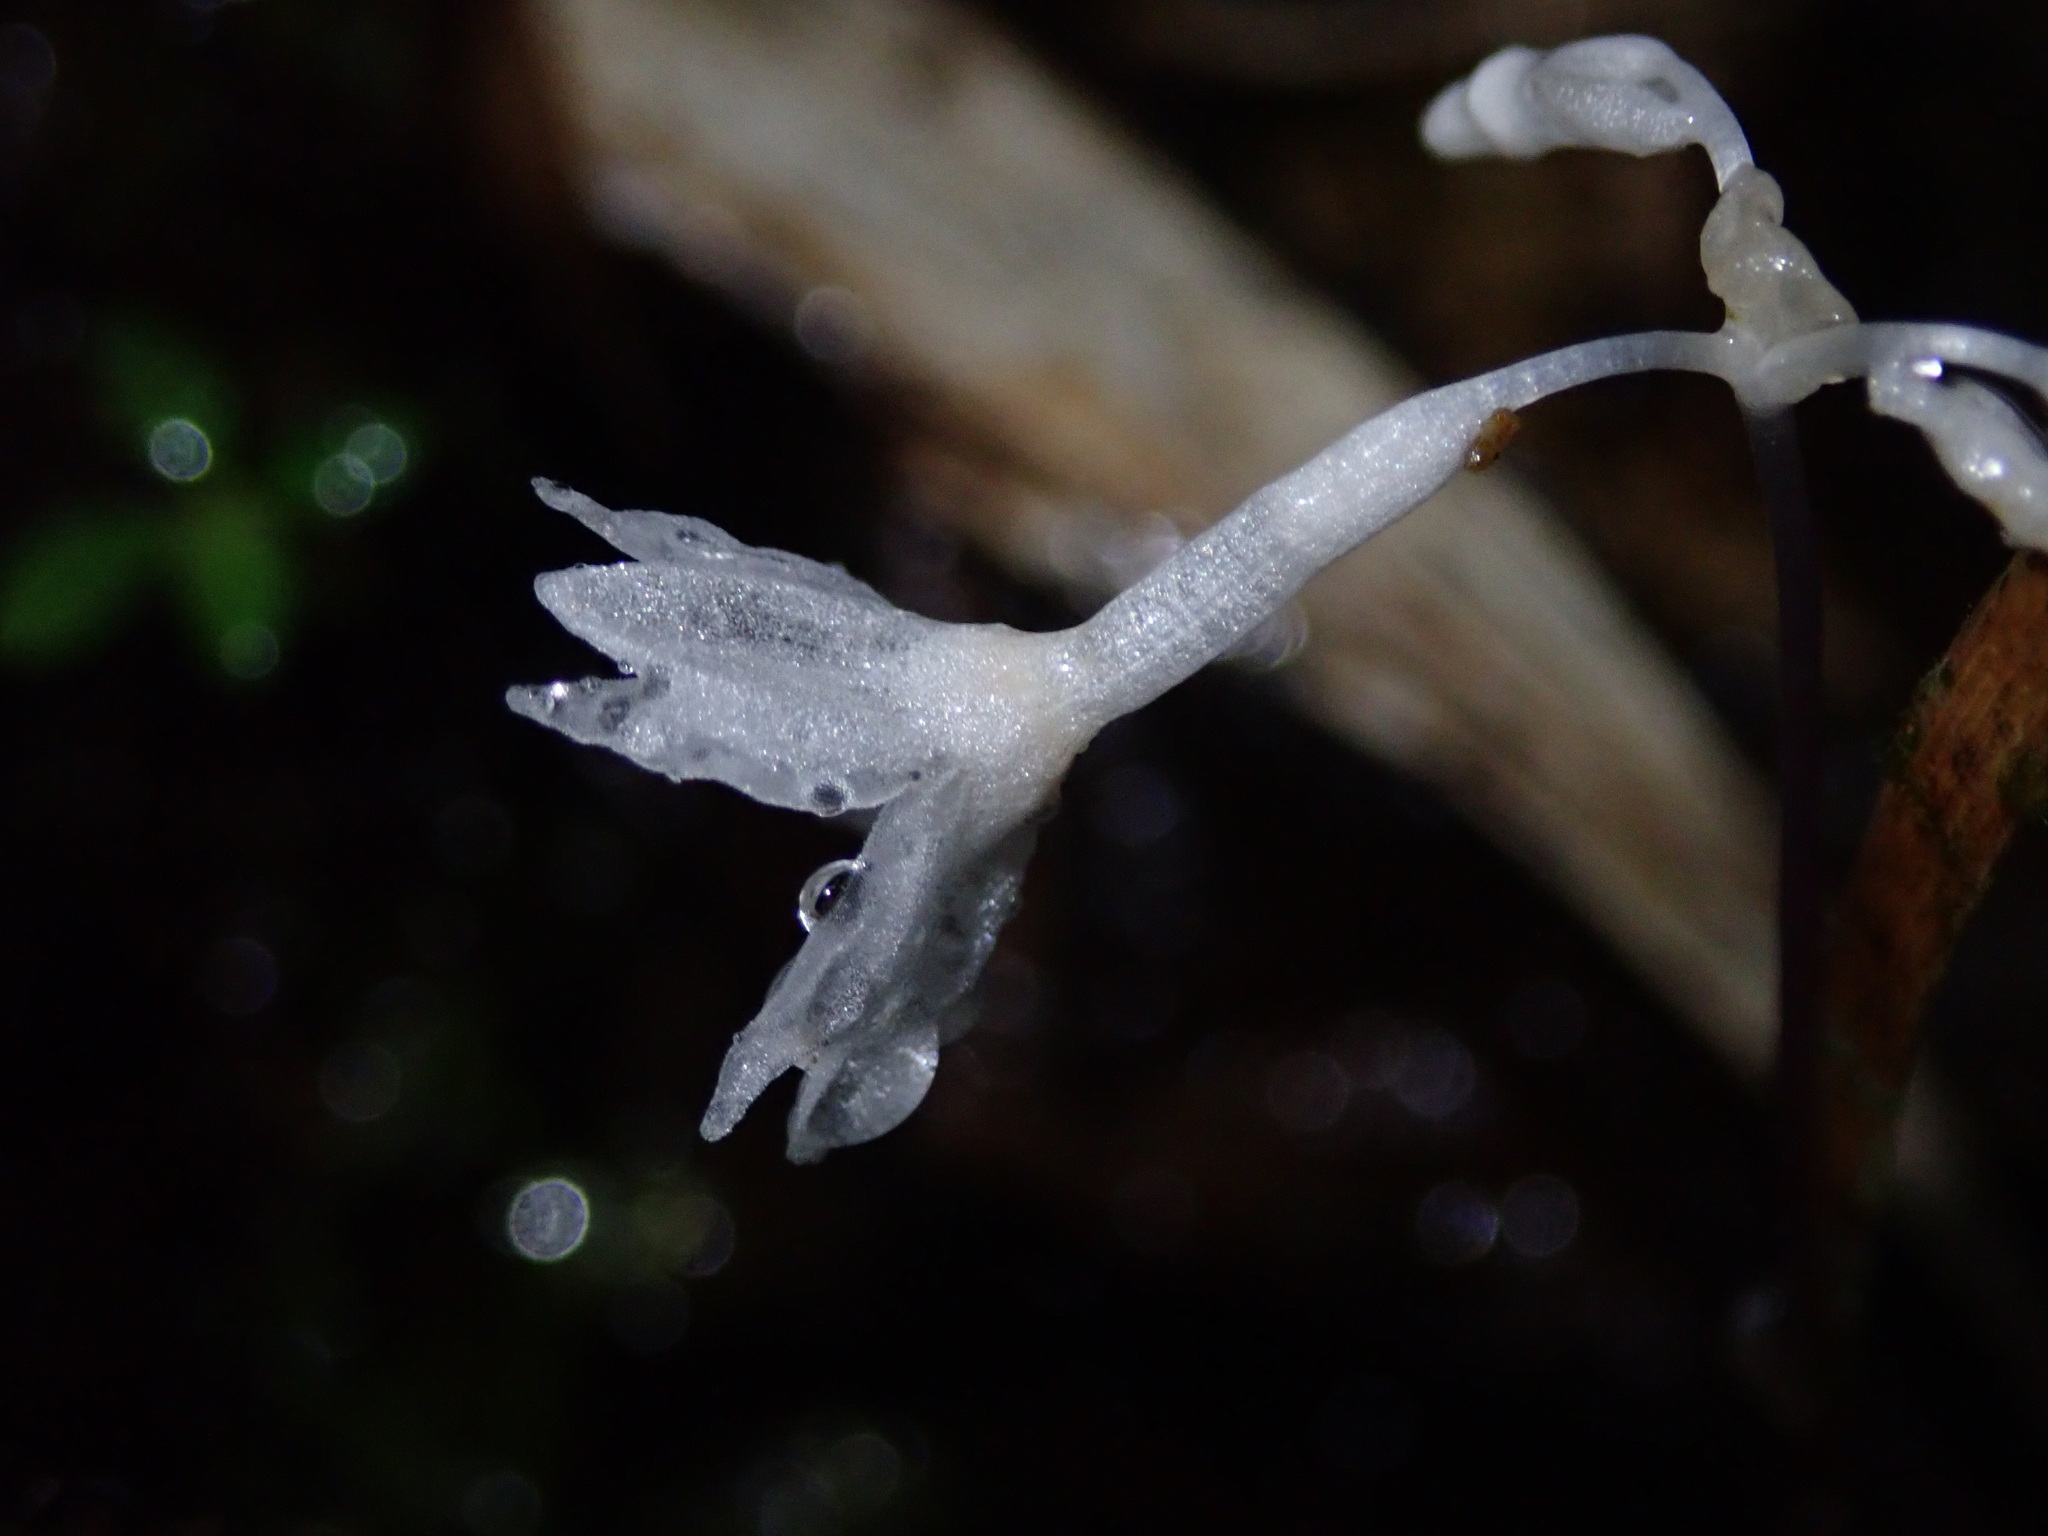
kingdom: Plantae
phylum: Tracheophyta
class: Liliopsida
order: Dioscoreales
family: Burmanniaceae
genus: Gymnosiphon
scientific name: Gymnosiphon suaveolens
